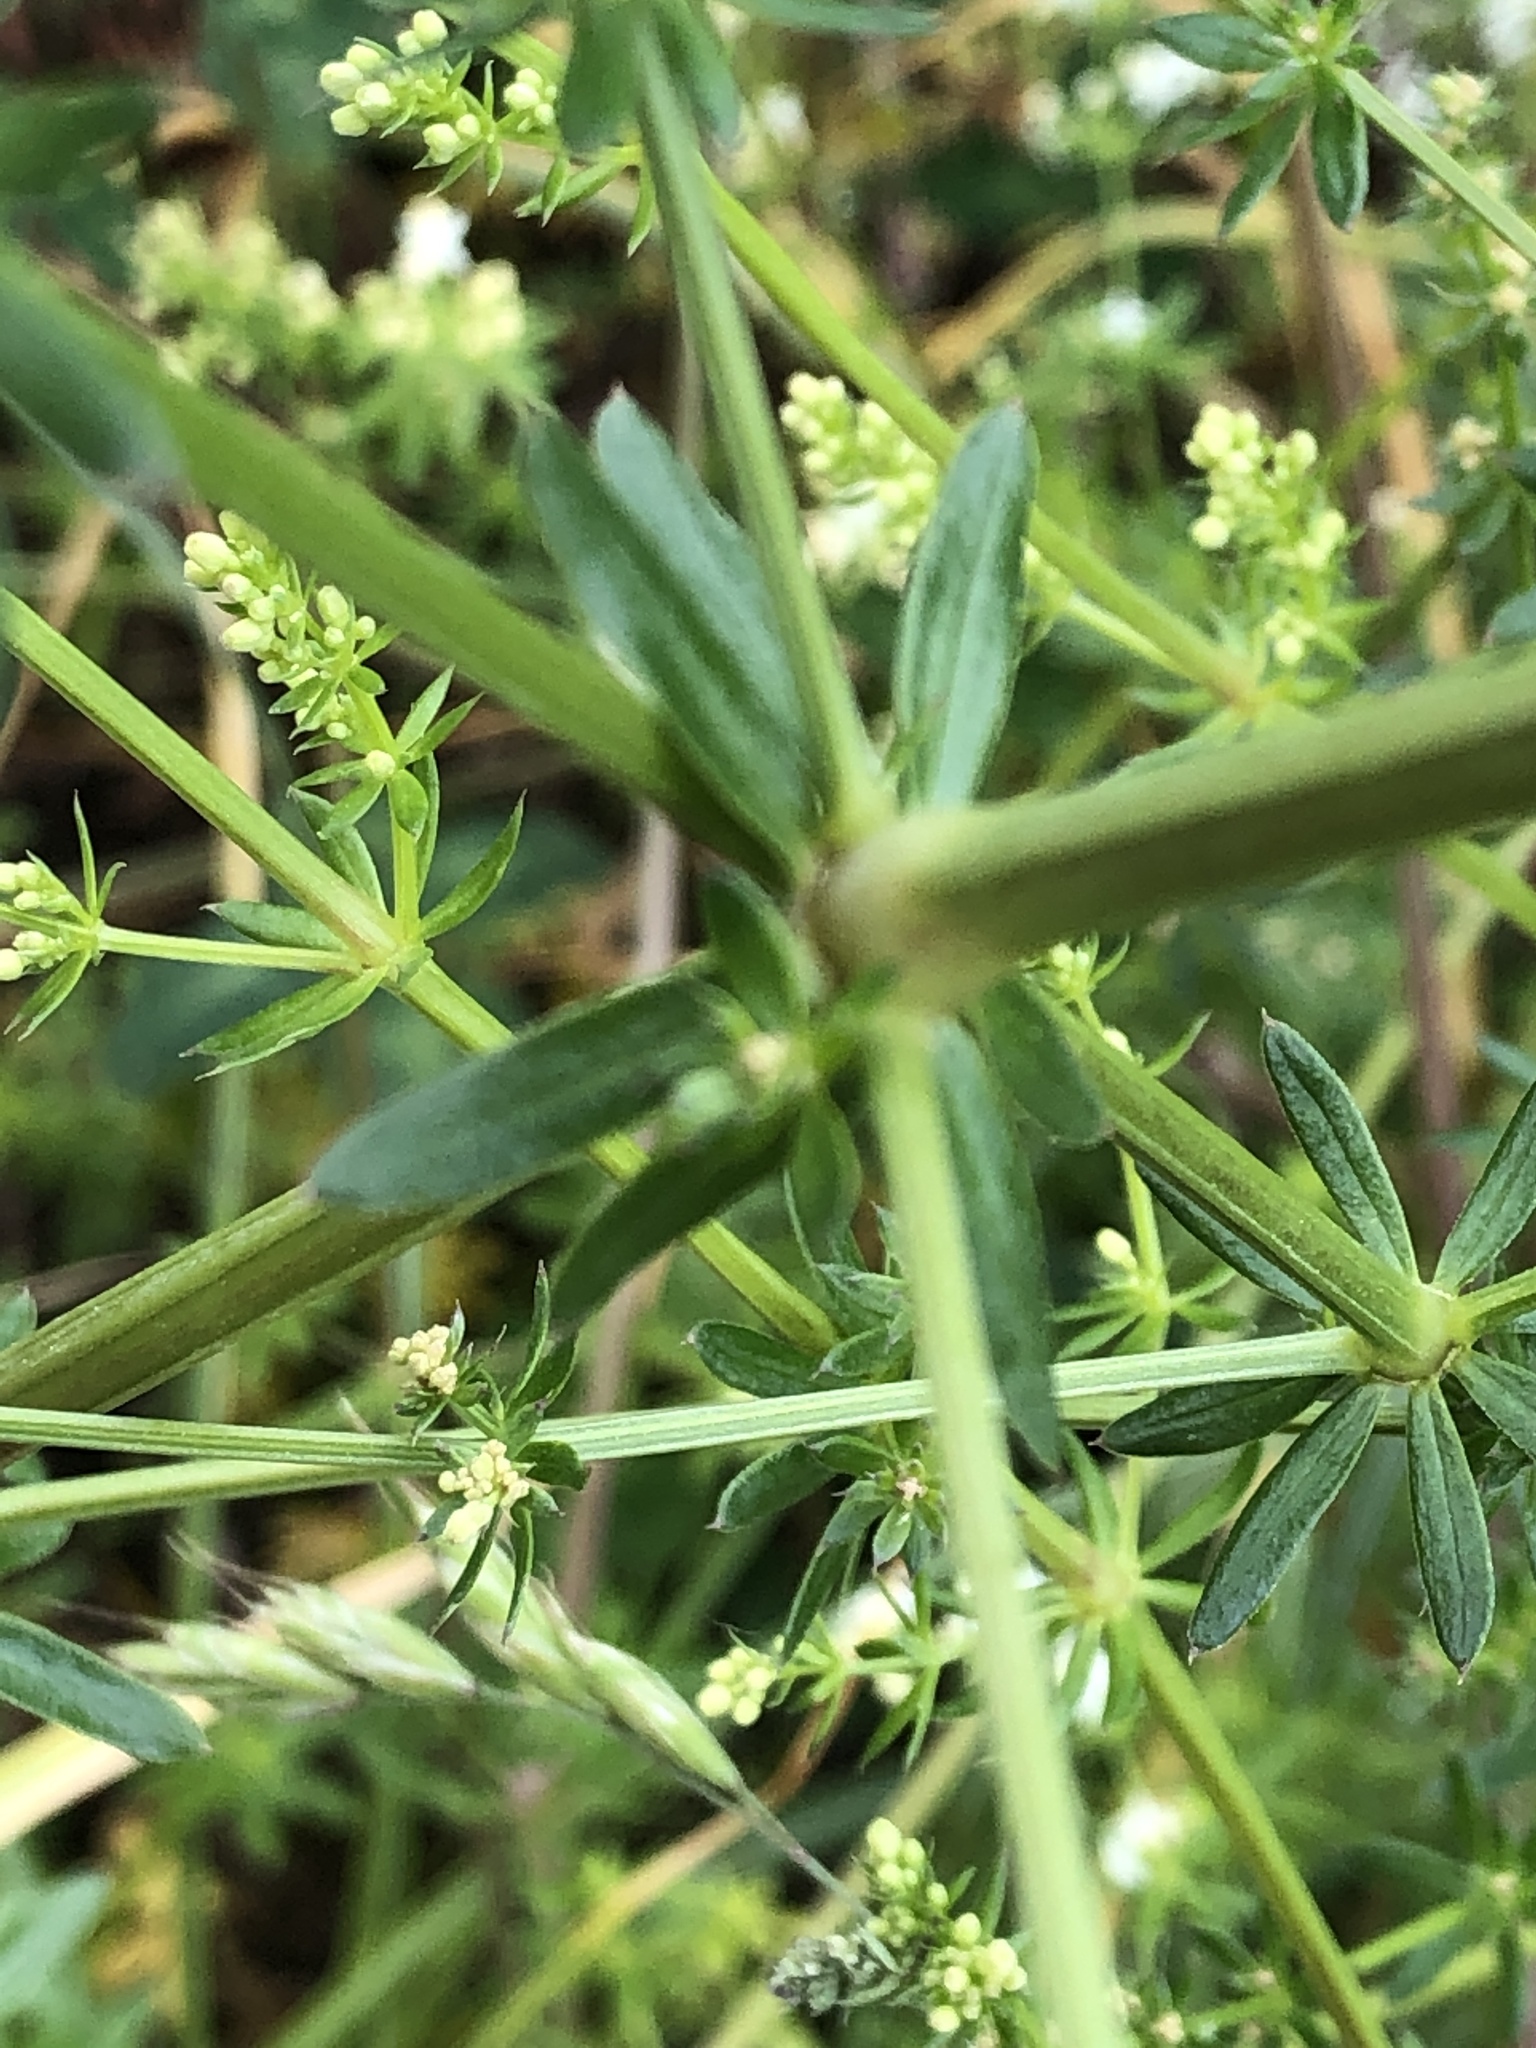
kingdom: Plantae
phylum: Tracheophyta
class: Magnoliopsida
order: Gentianales
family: Rubiaceae
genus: Galium
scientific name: Galium album
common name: White bedstraw
